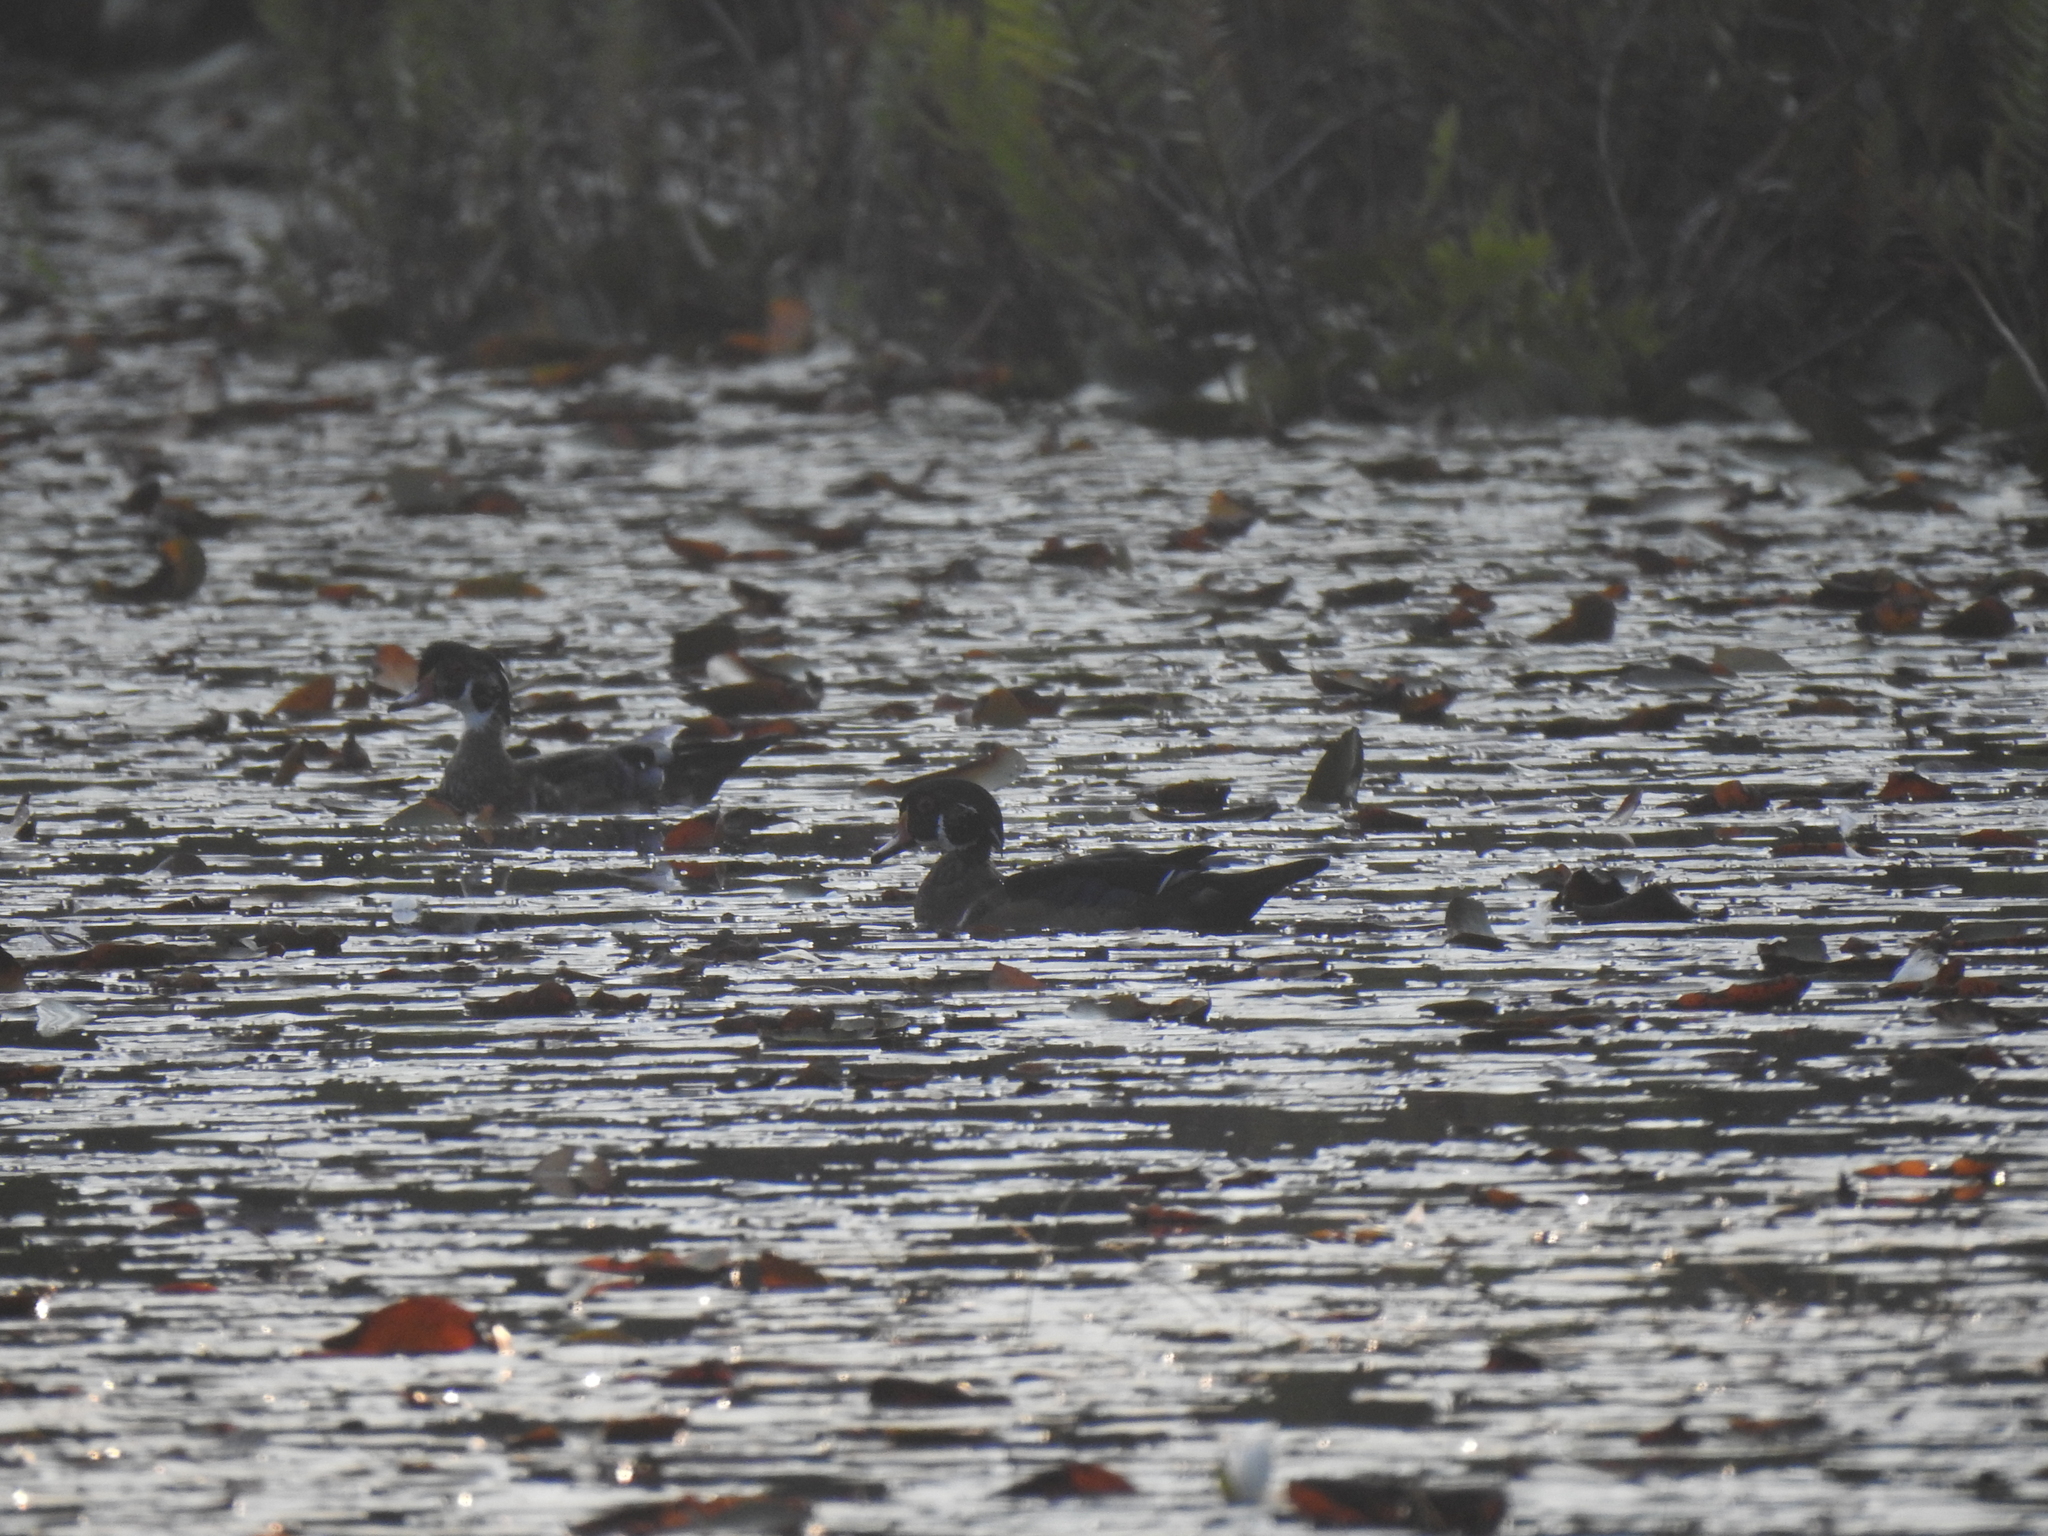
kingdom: Animalia
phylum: Chordata
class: Aves
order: Anseriformes
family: Anatidae
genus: Aix
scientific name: Aix sponsa
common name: Wood duck
